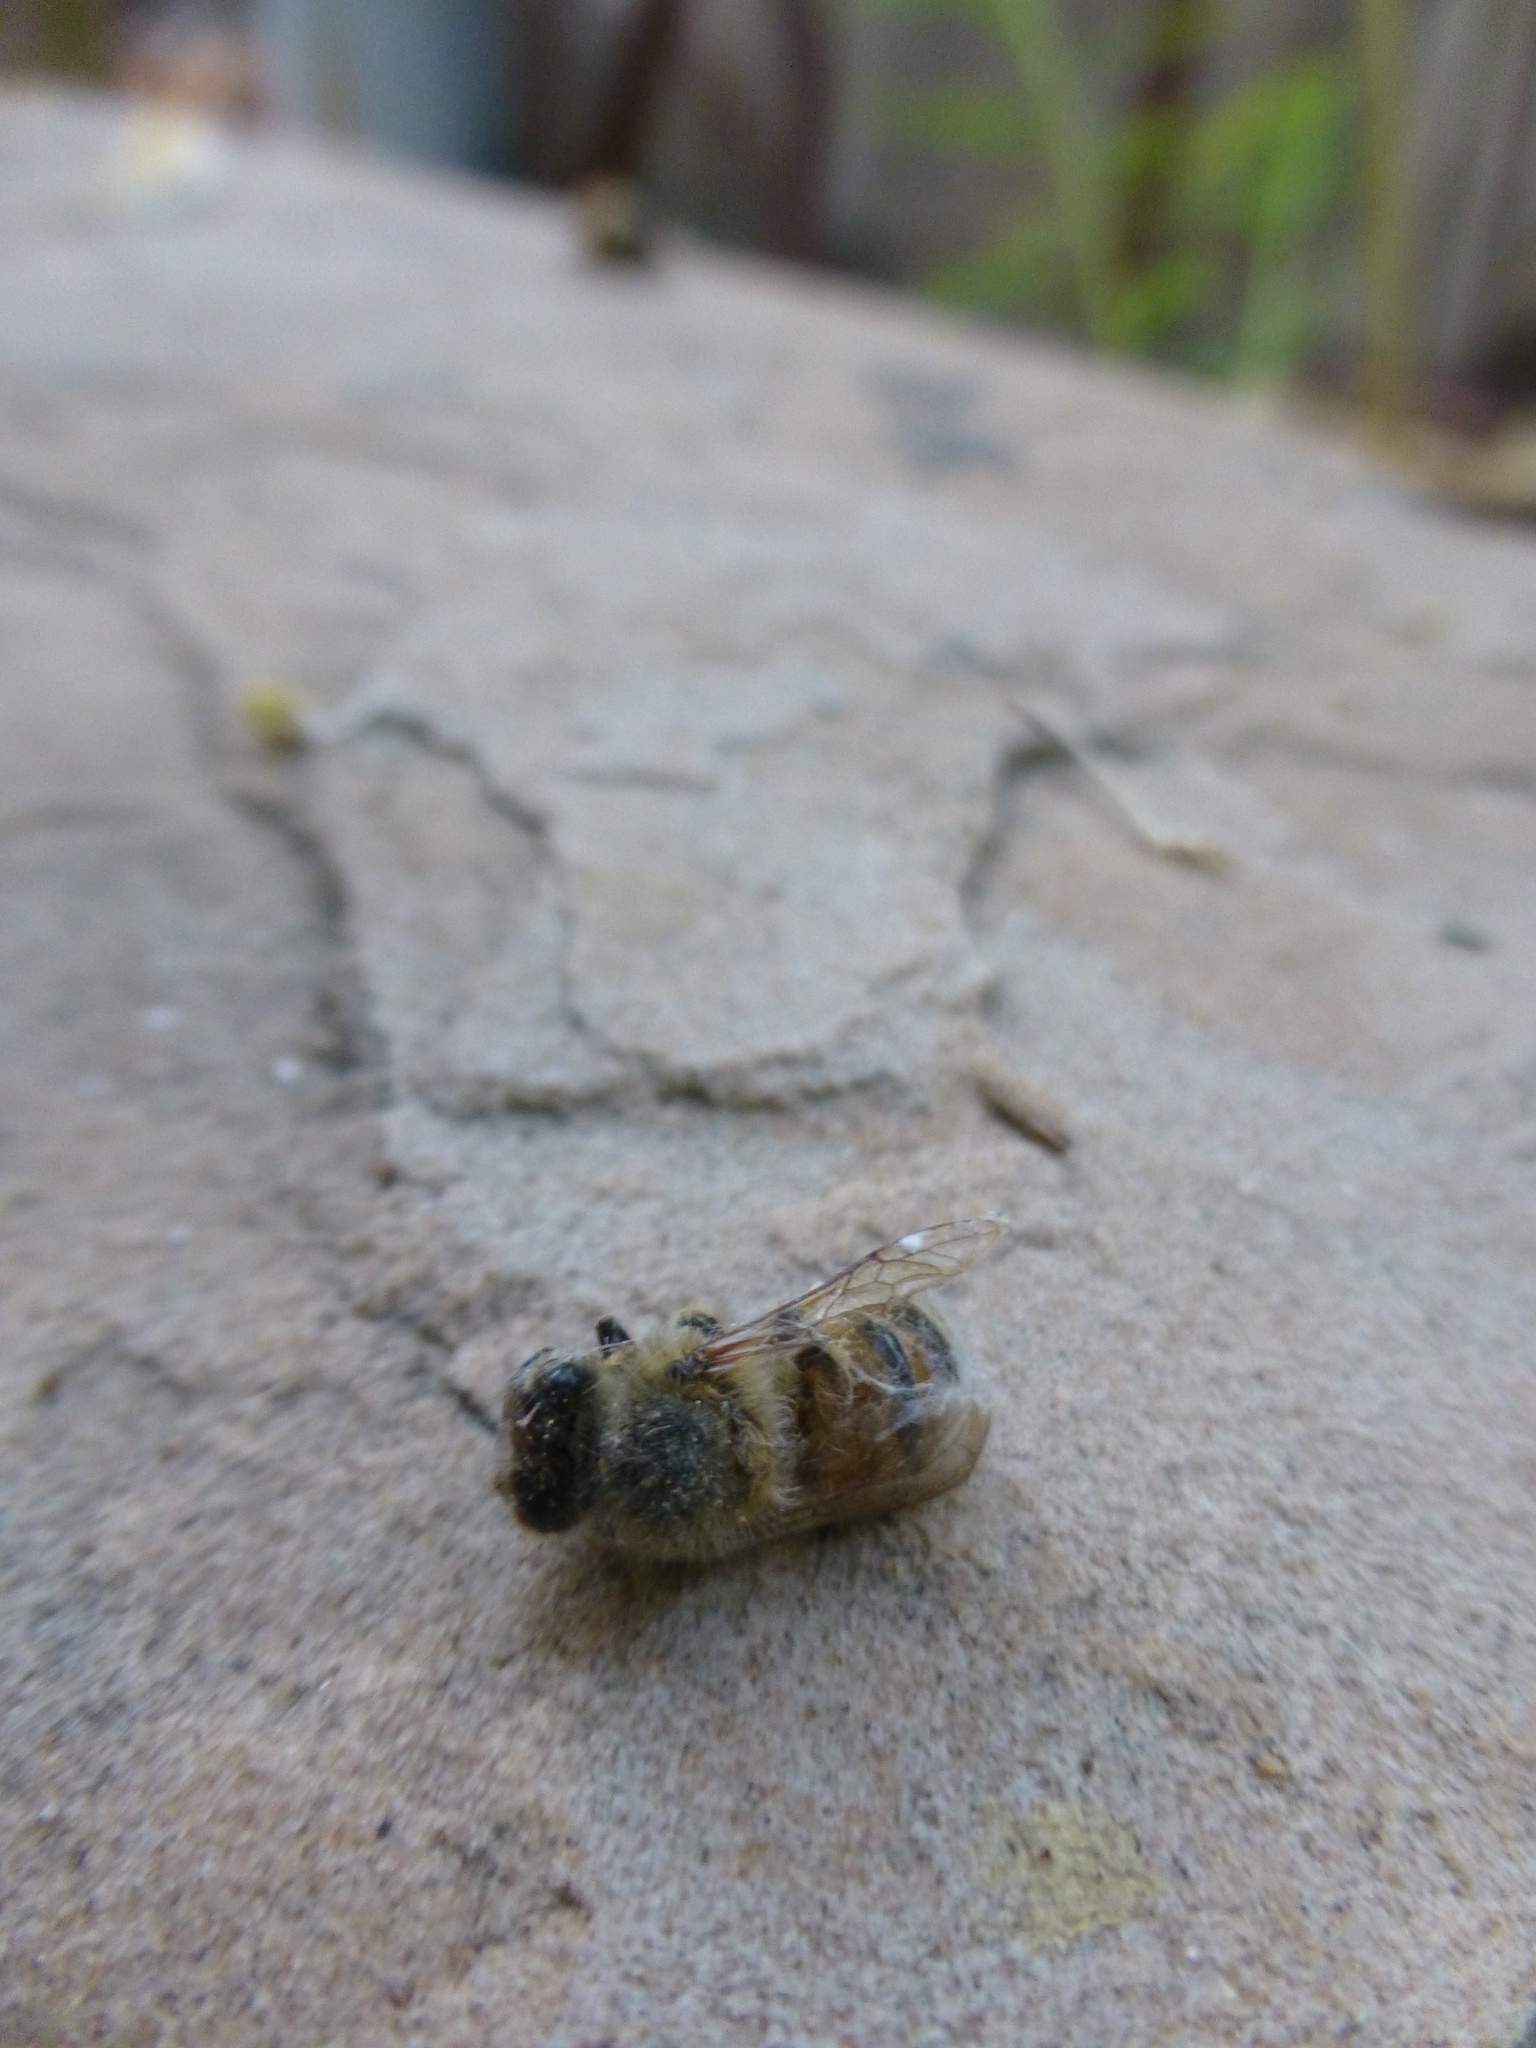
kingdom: Animalia
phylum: Arthropoda
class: Insecta
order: Hymenoptera
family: Apidae
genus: Apis
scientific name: Apis mellifera
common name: Honey bee
